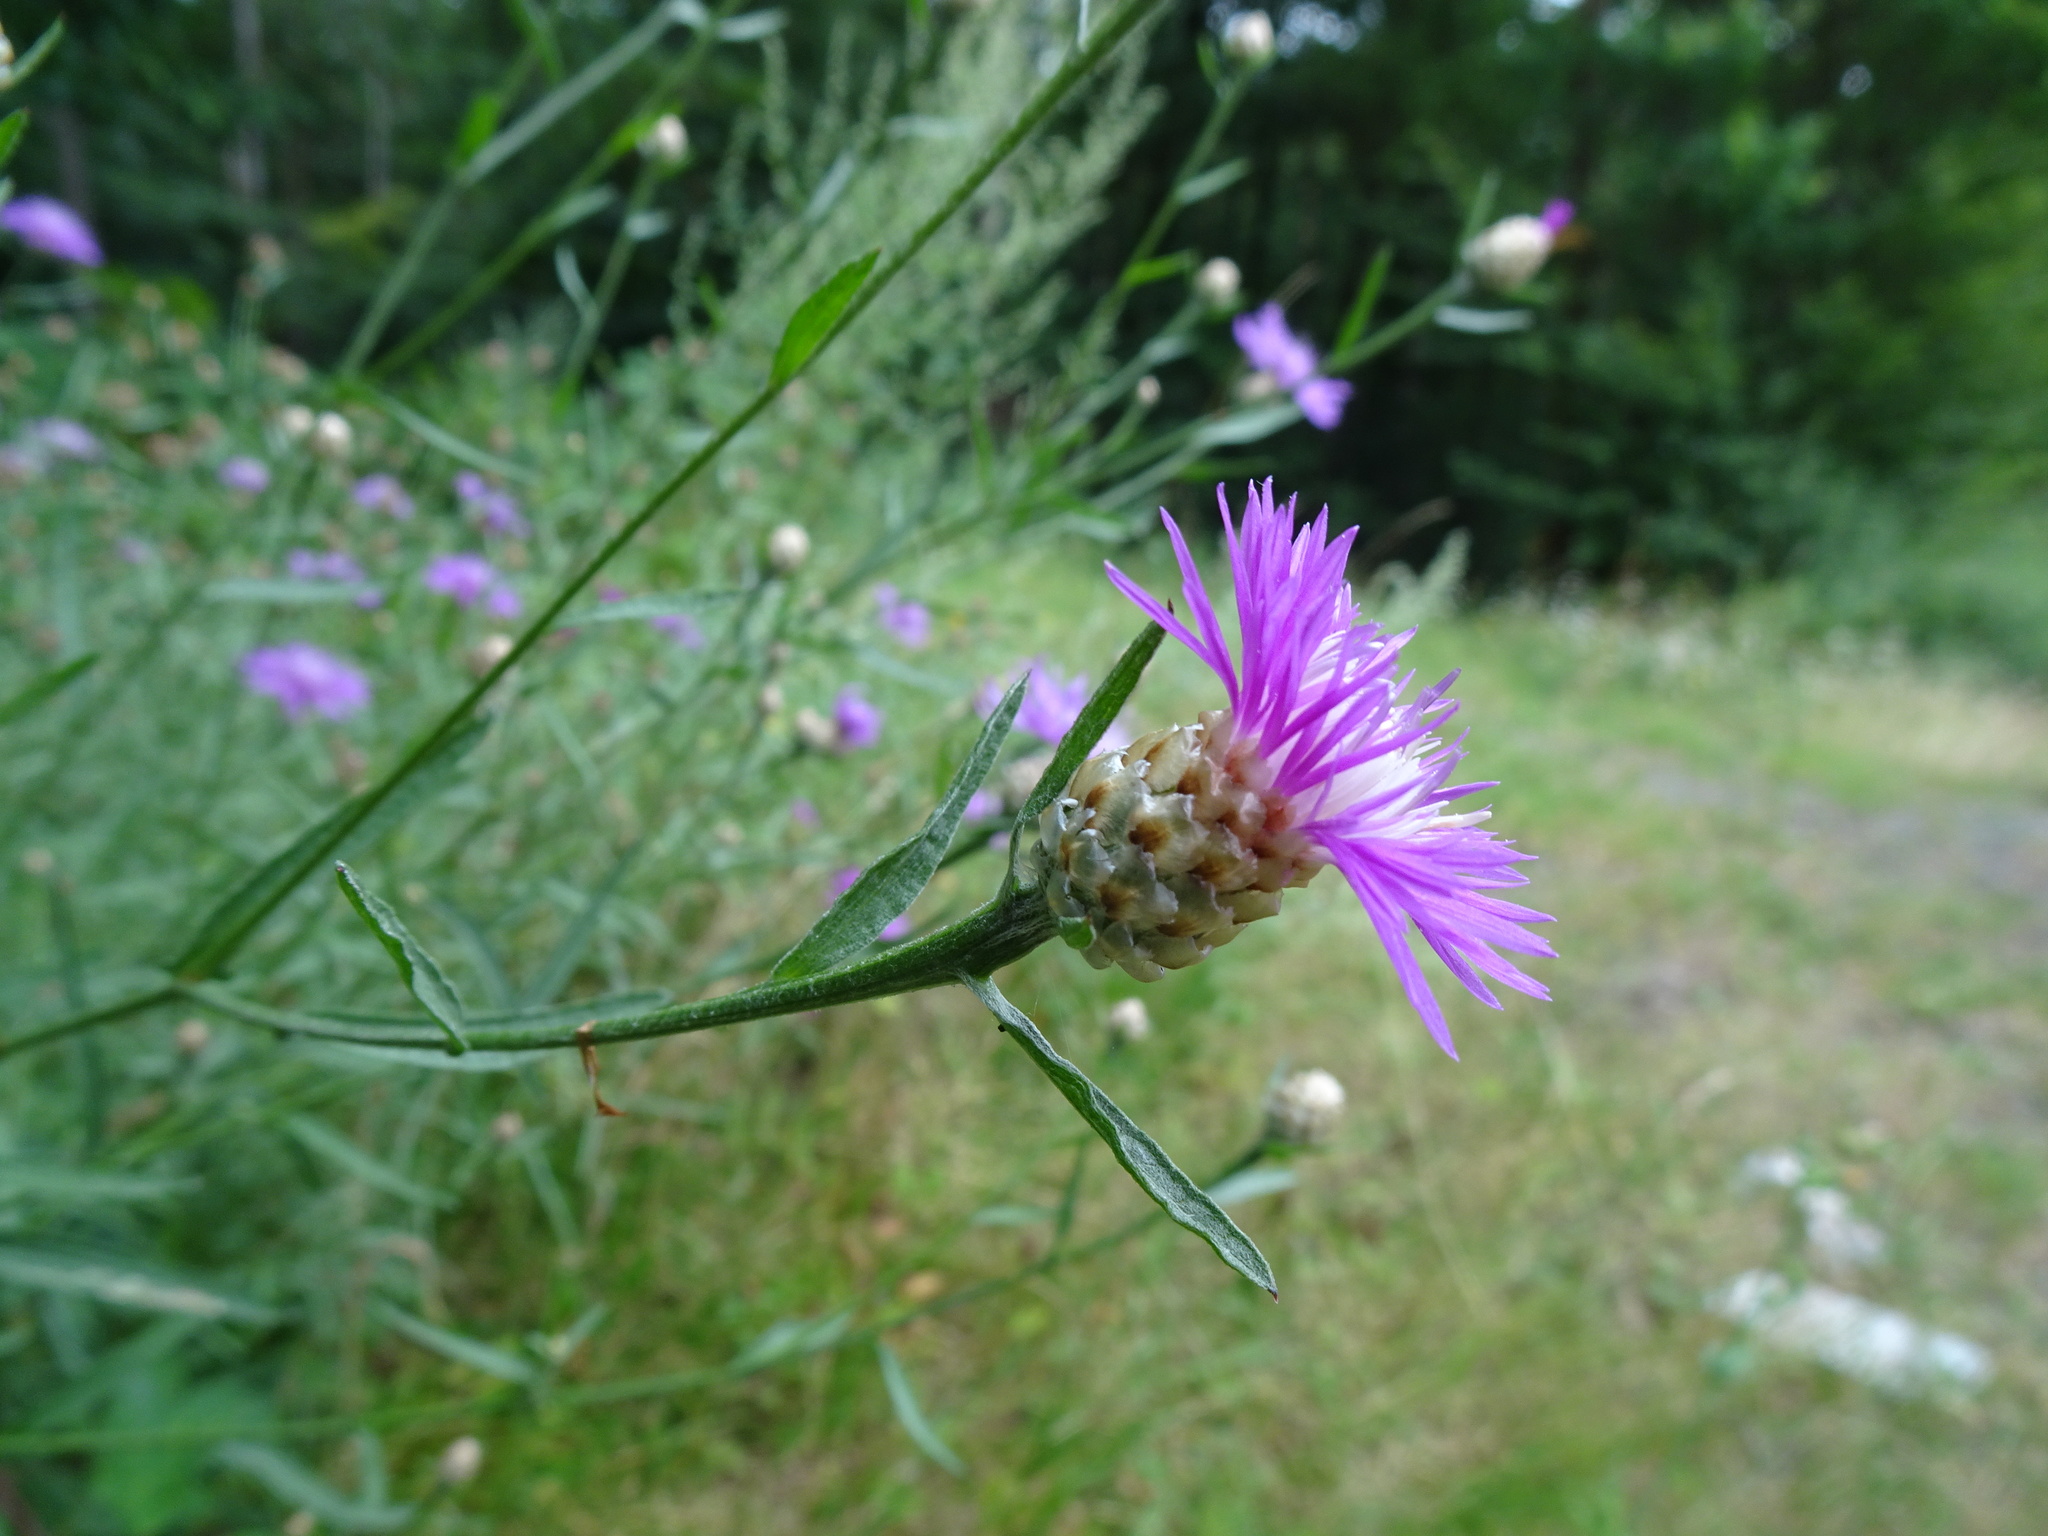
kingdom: Plantae
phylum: Tracheophyta
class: Magnoliopsida
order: Asterales
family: Asteraceae
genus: Centaurea
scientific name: Centaurea jacea
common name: Brown knapweed
